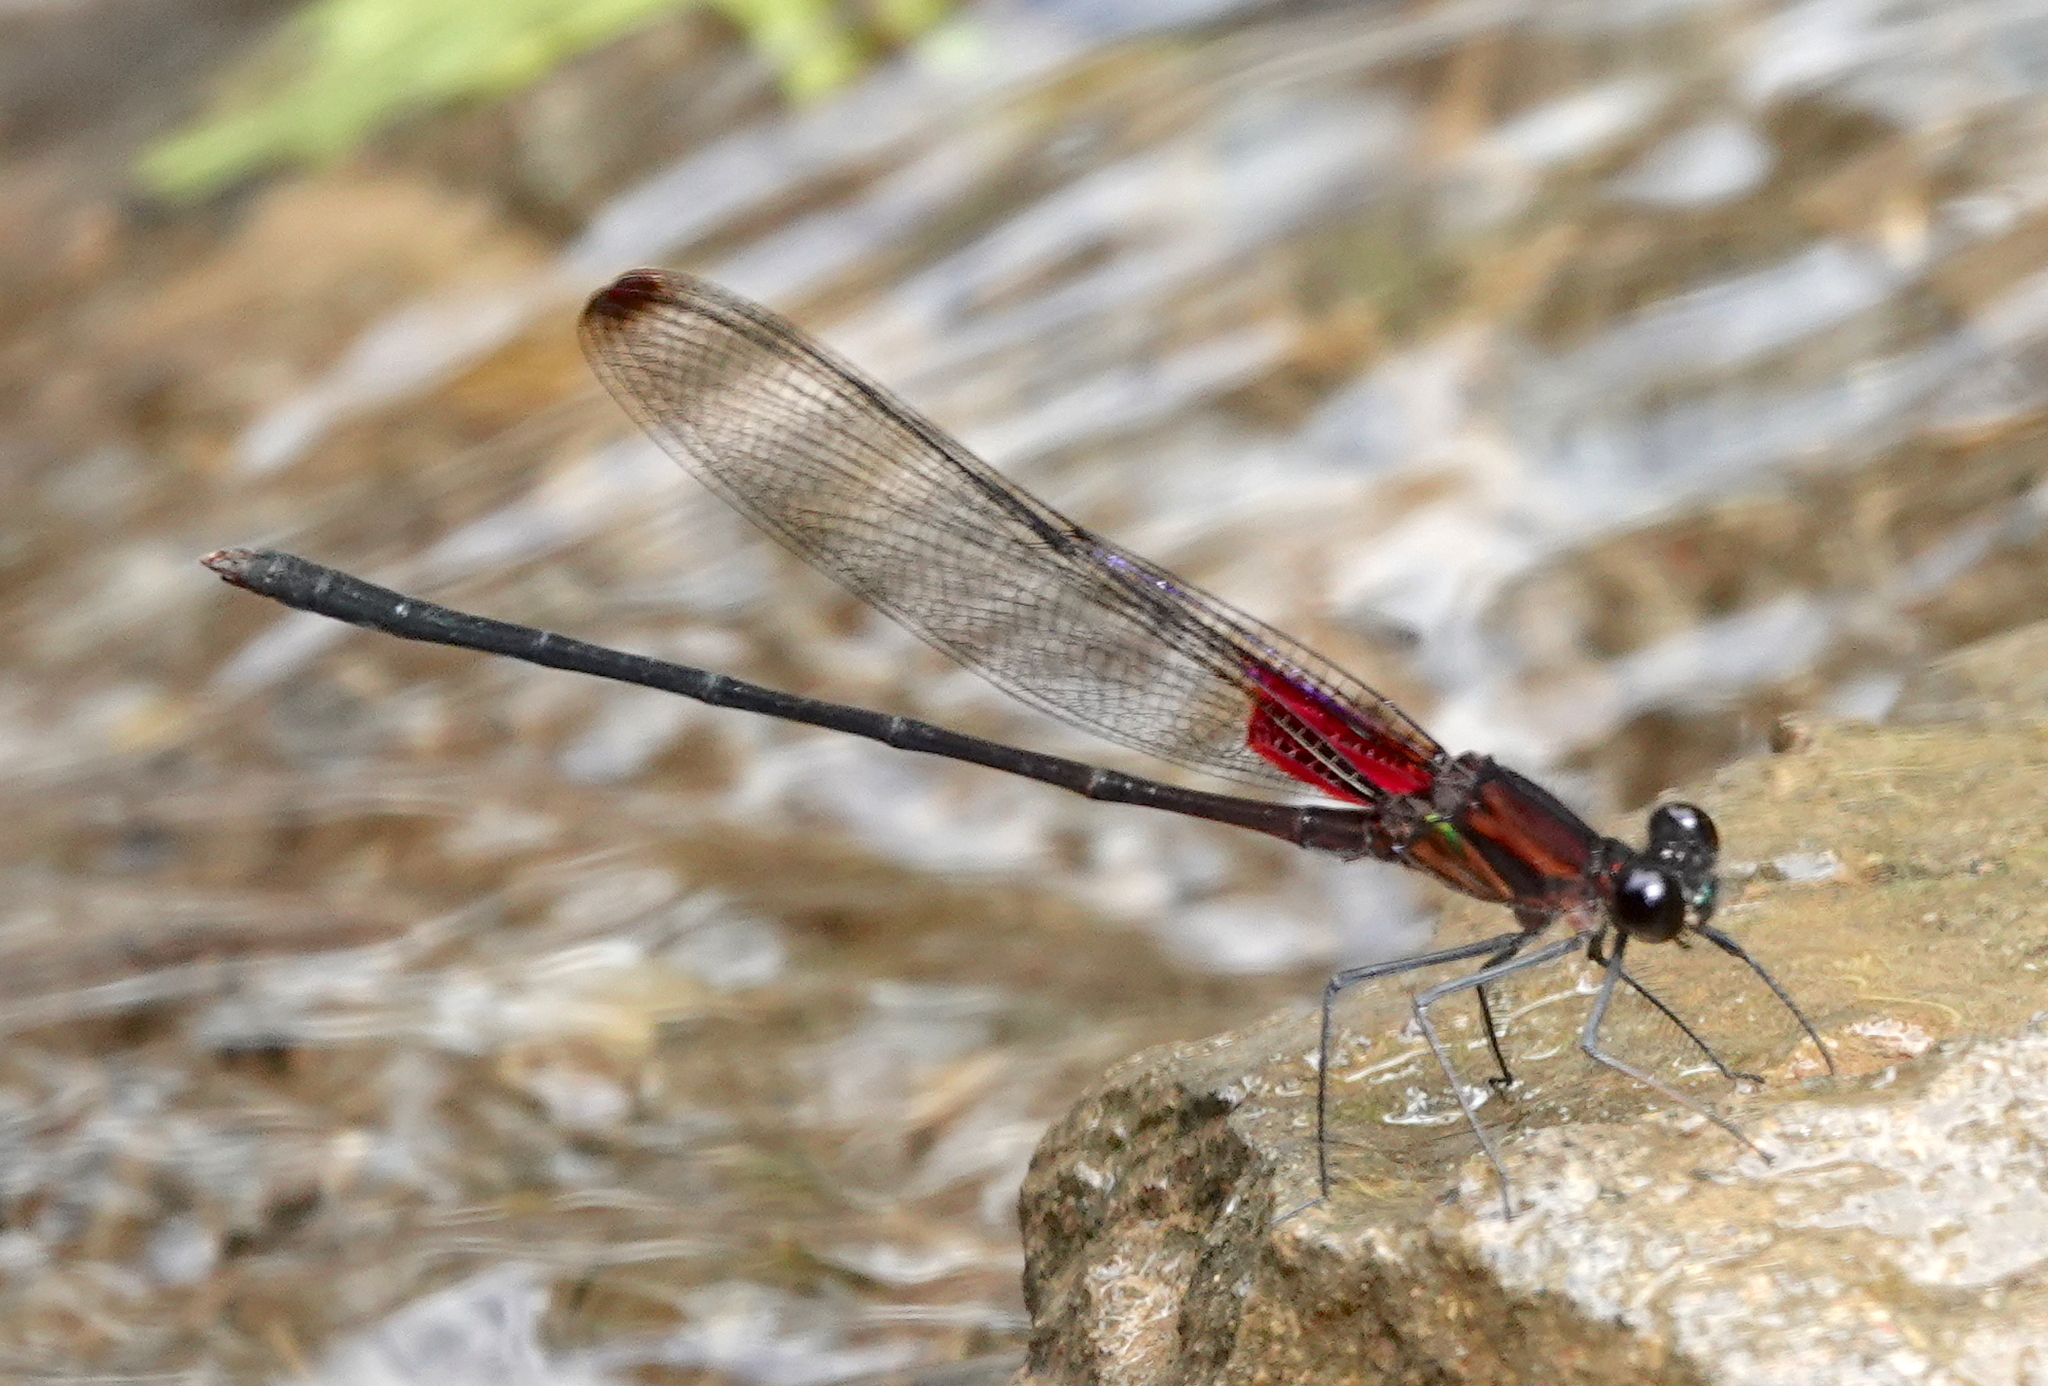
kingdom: Animalia
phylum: Arthropoda
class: Insecta
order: Odonata
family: Calopterygidae
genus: Hetaerina
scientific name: Hetaerina cruentata
